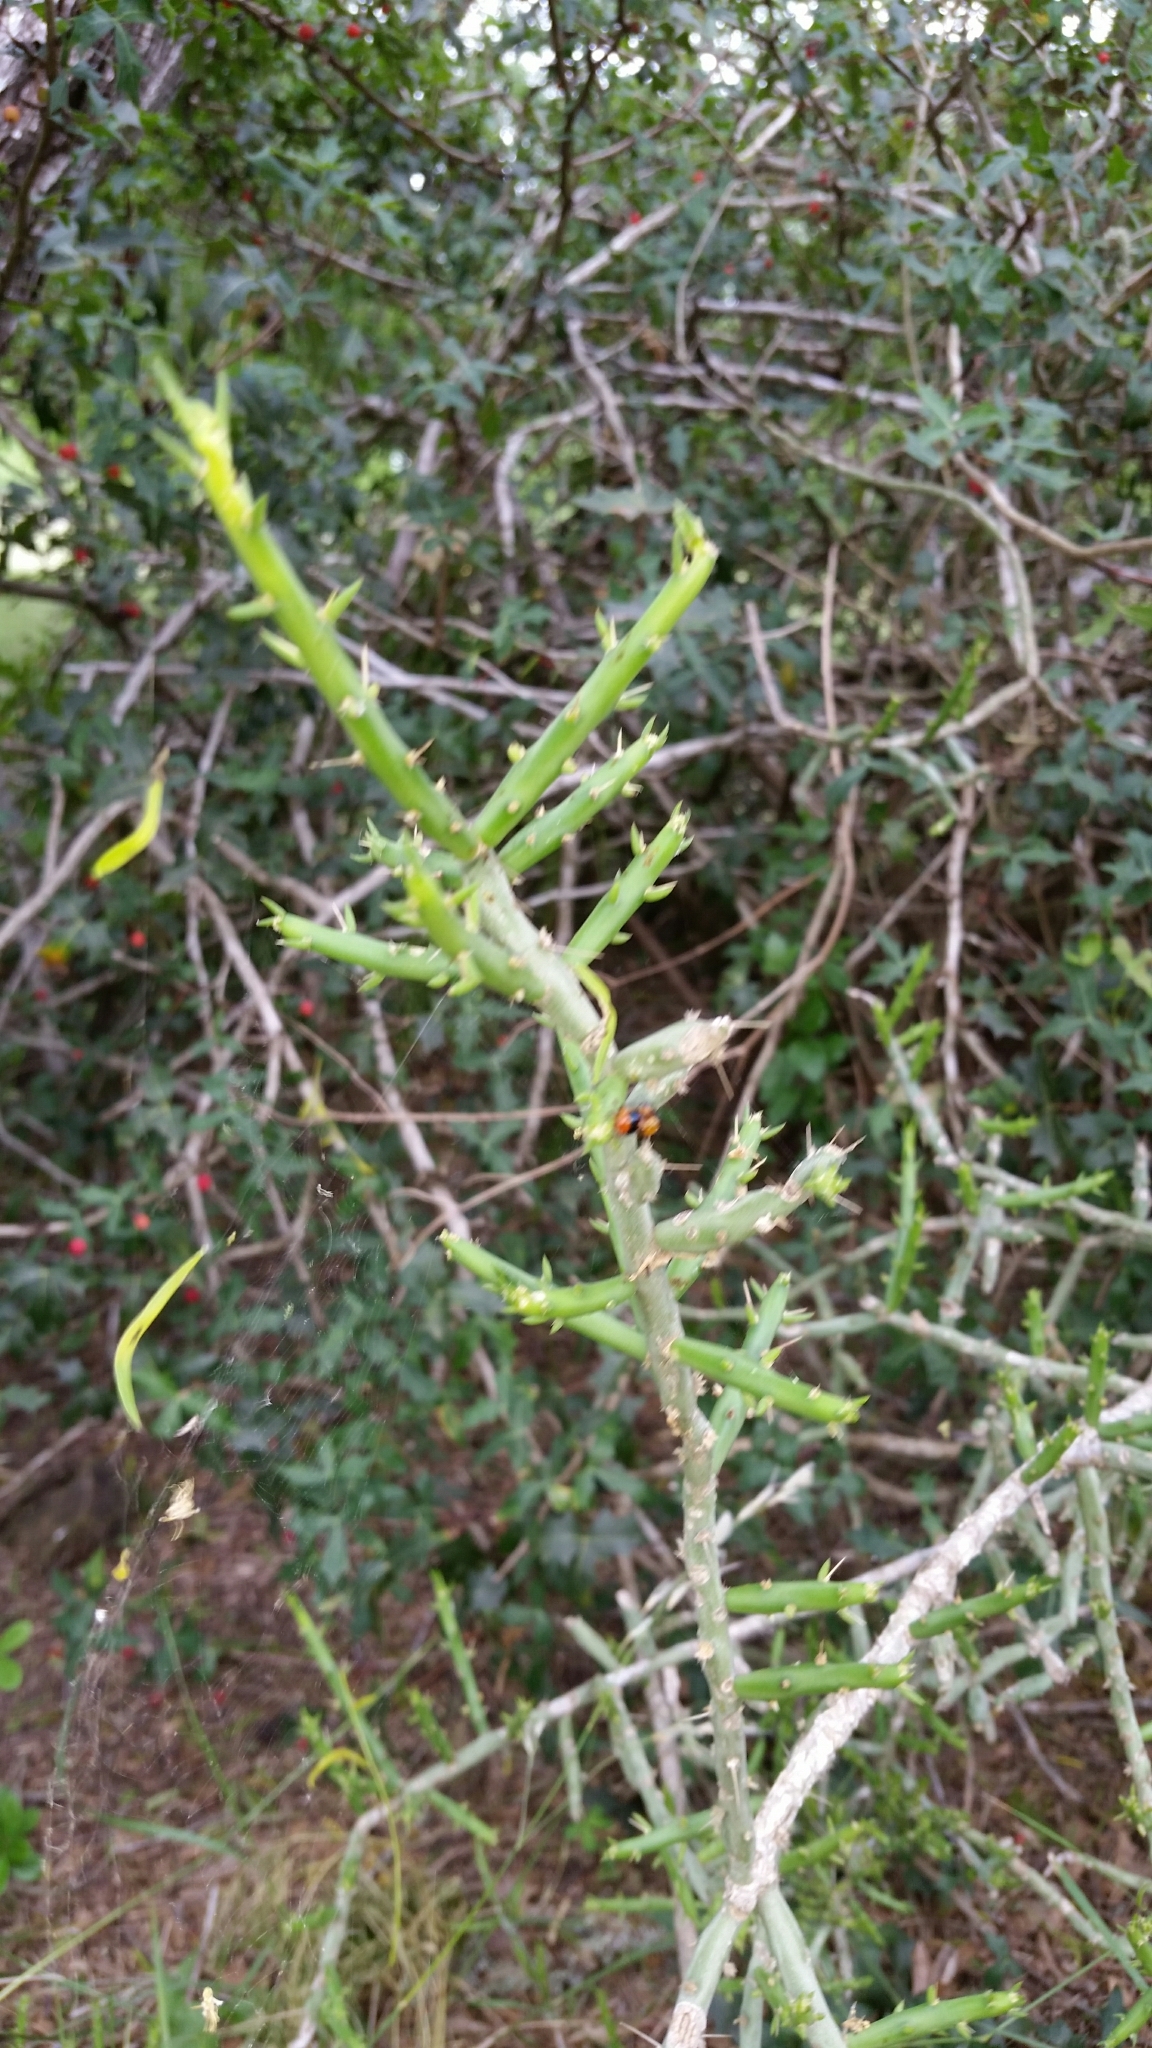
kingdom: Plantae
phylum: Tracheophyta
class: Magnoliopsida
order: Caryophyllales
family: Cactaceae
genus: Cylindropuntia
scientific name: Cylindropuntia leptocaulis
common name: Christmas cactus
